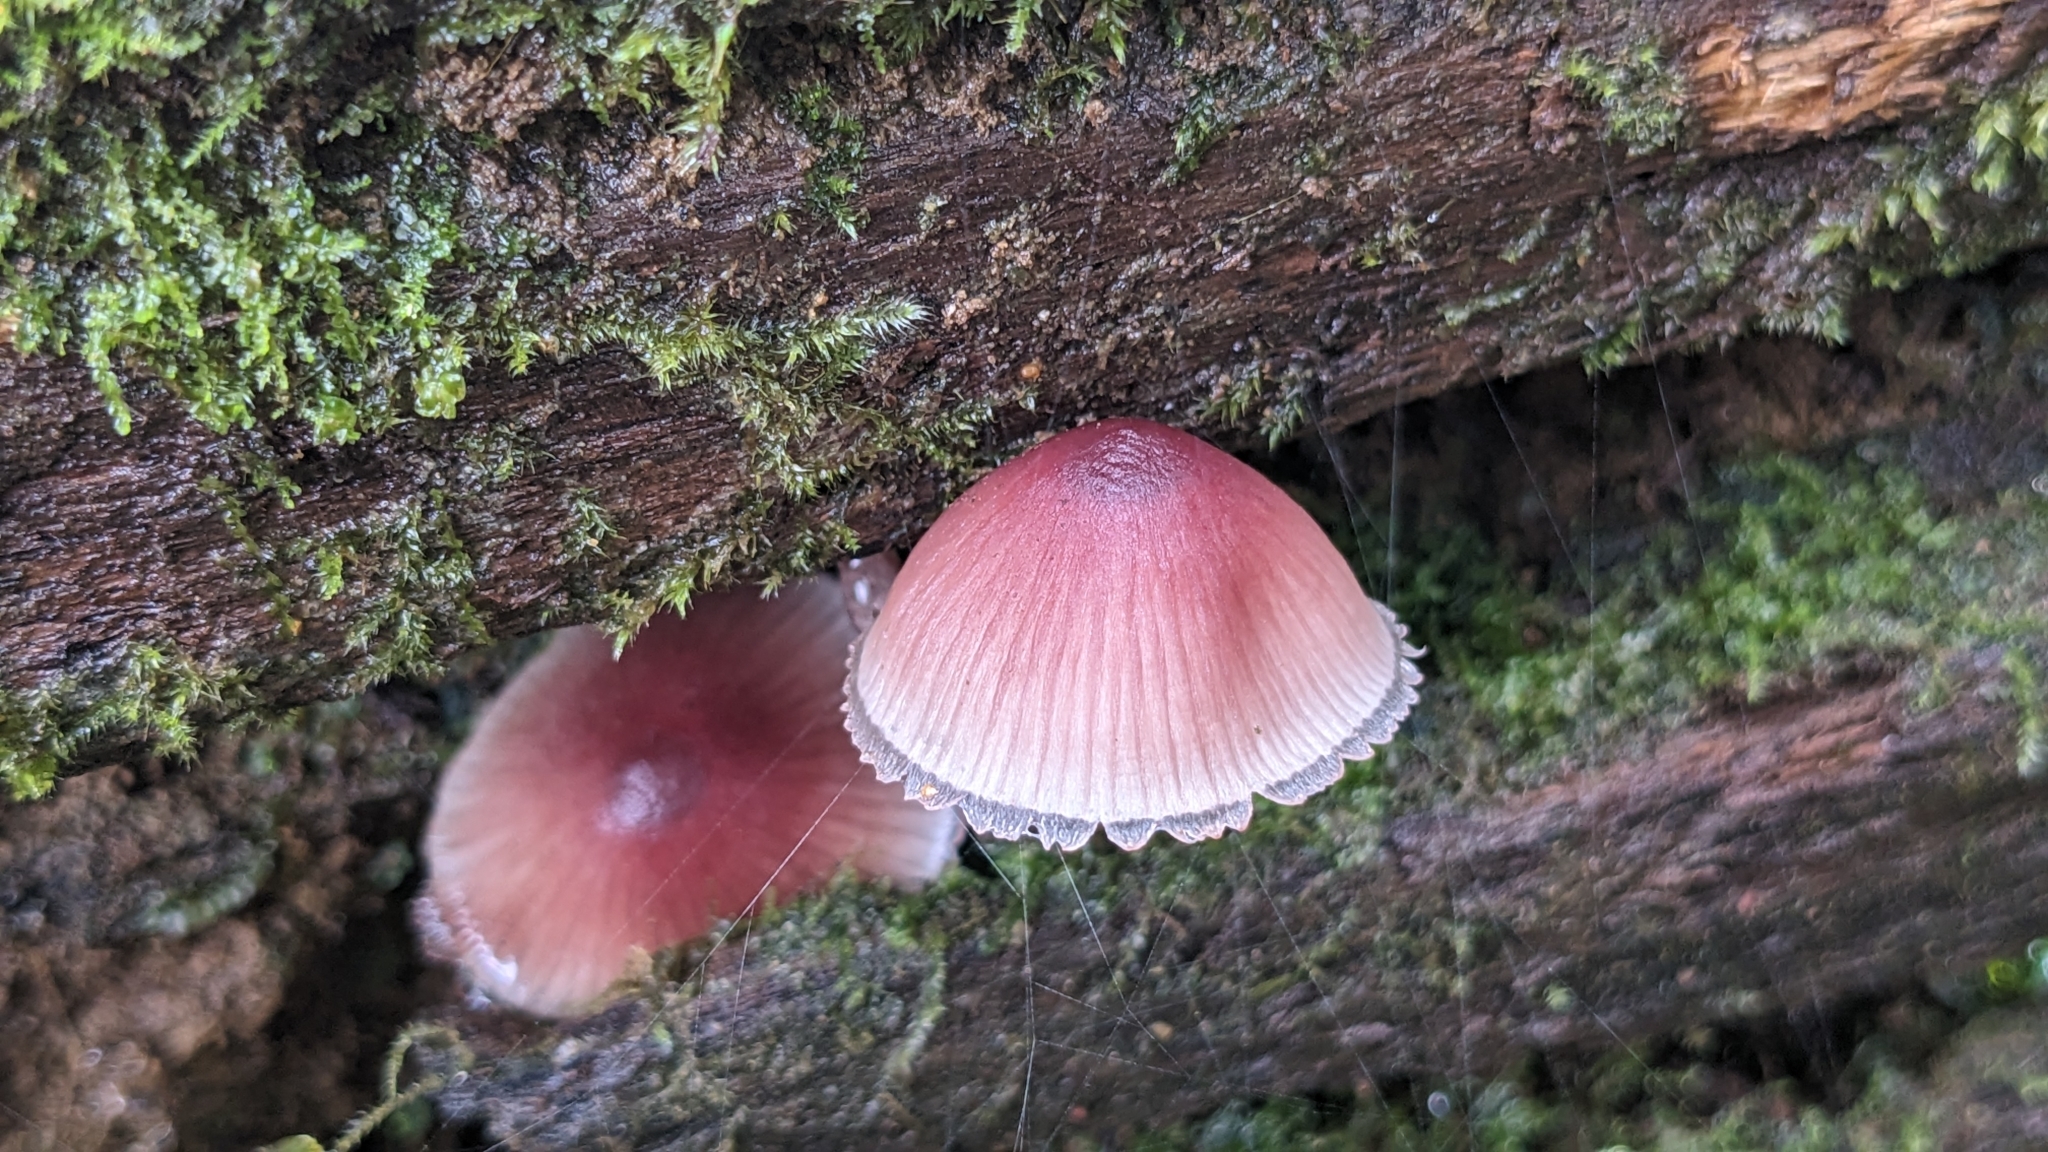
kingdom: Fungi
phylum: Basidiomycota
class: Agaricomycetes
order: Agaricales
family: Mycenaceae
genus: Mycena
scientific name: Mycena haematopus
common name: Burgundydrop bonnet
